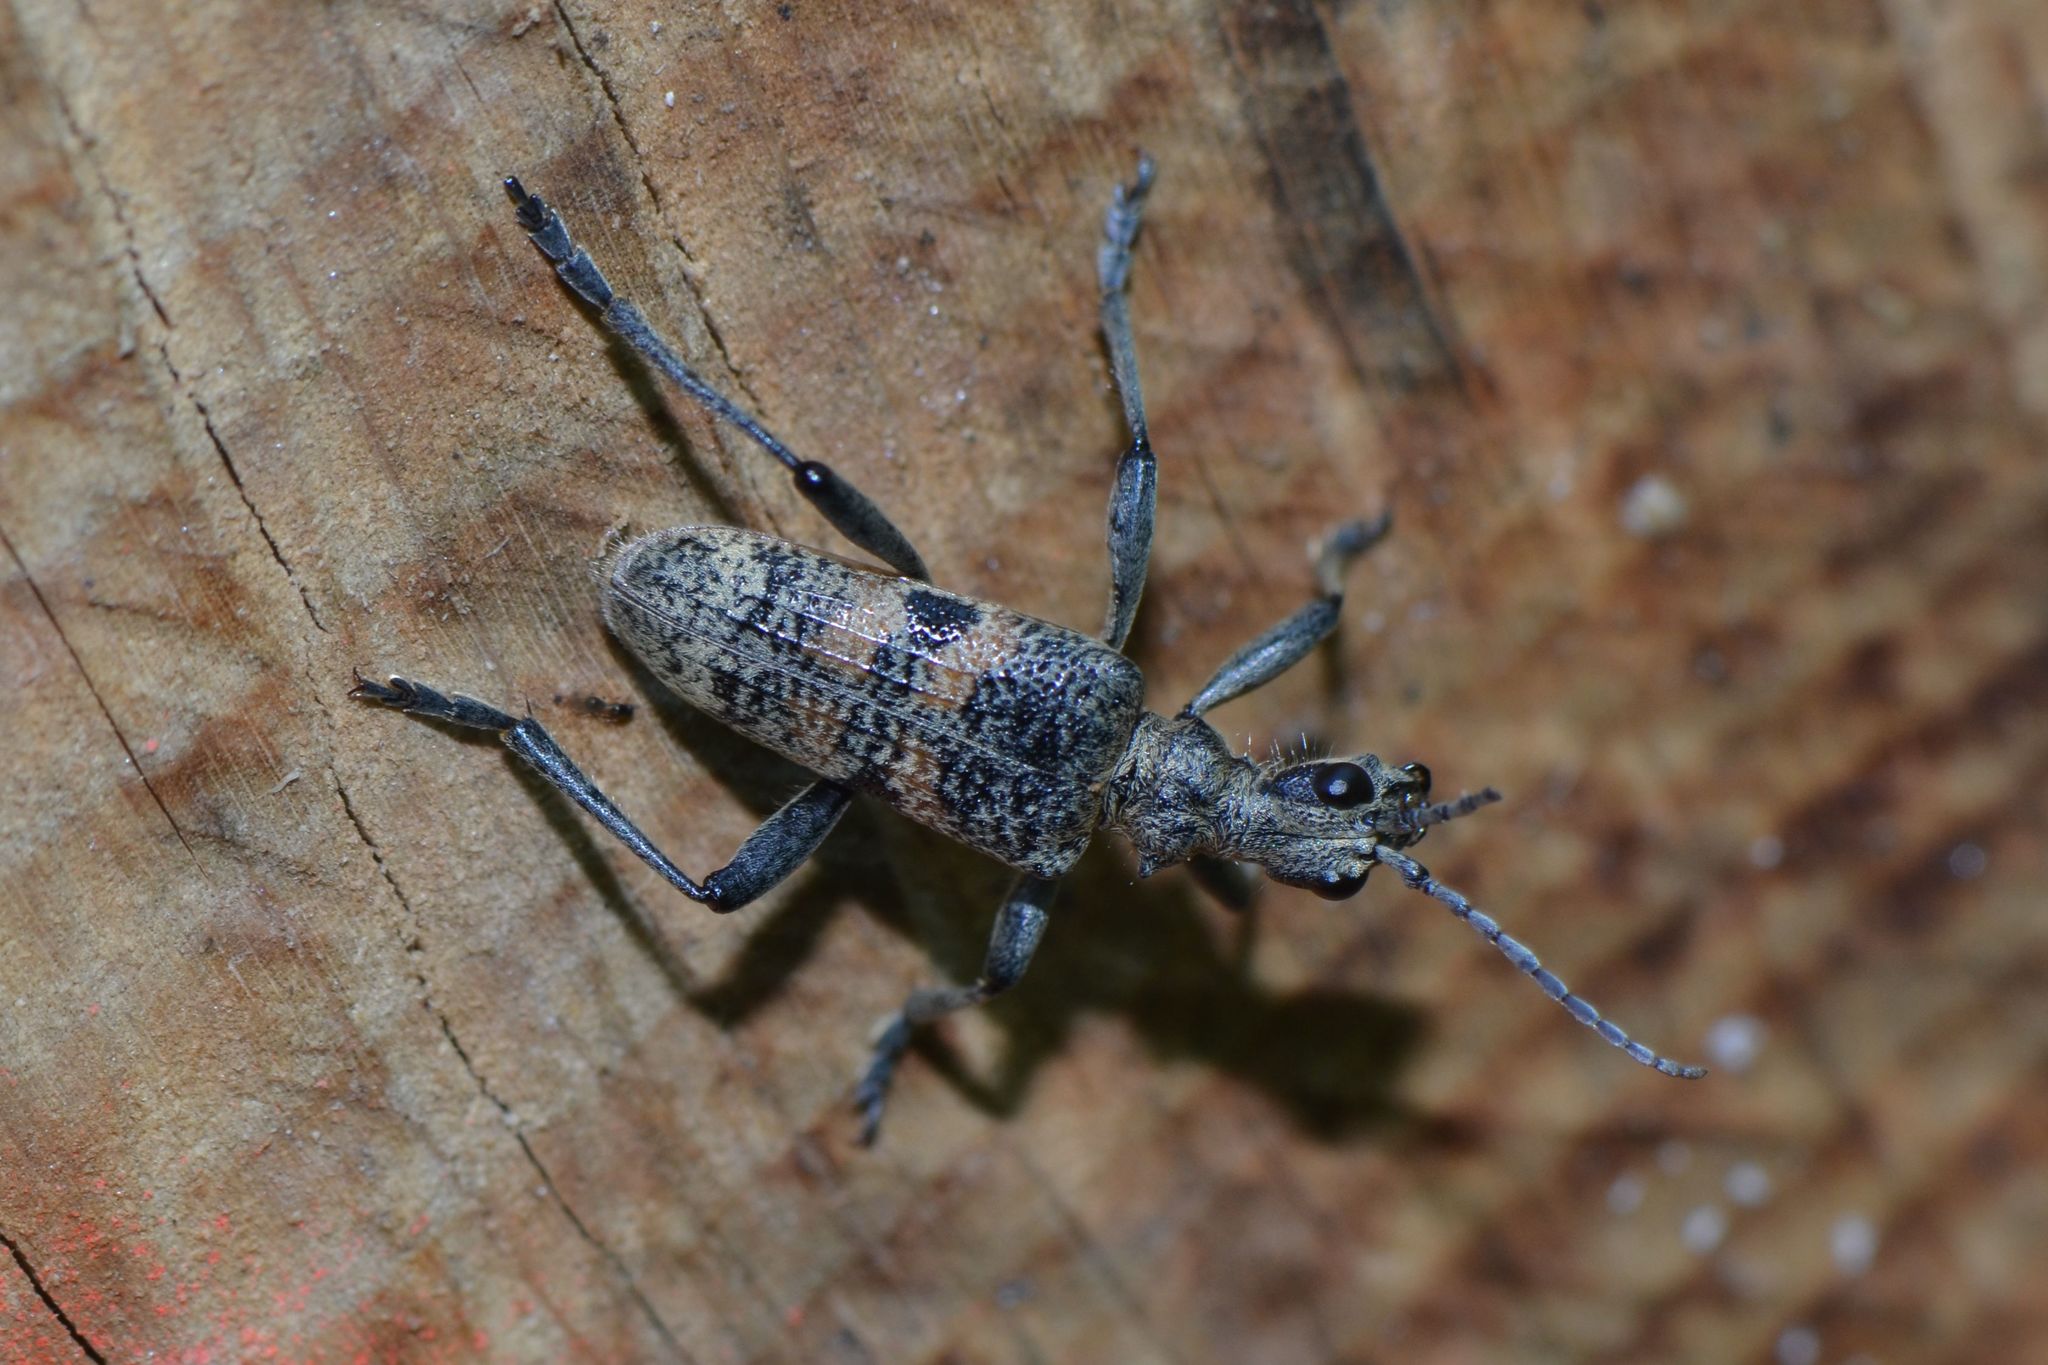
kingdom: Animalia
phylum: Arthropoda
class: Insecta
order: Coleoptera
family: Cerambycidae
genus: Rhagium
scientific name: Rhagium mordax
